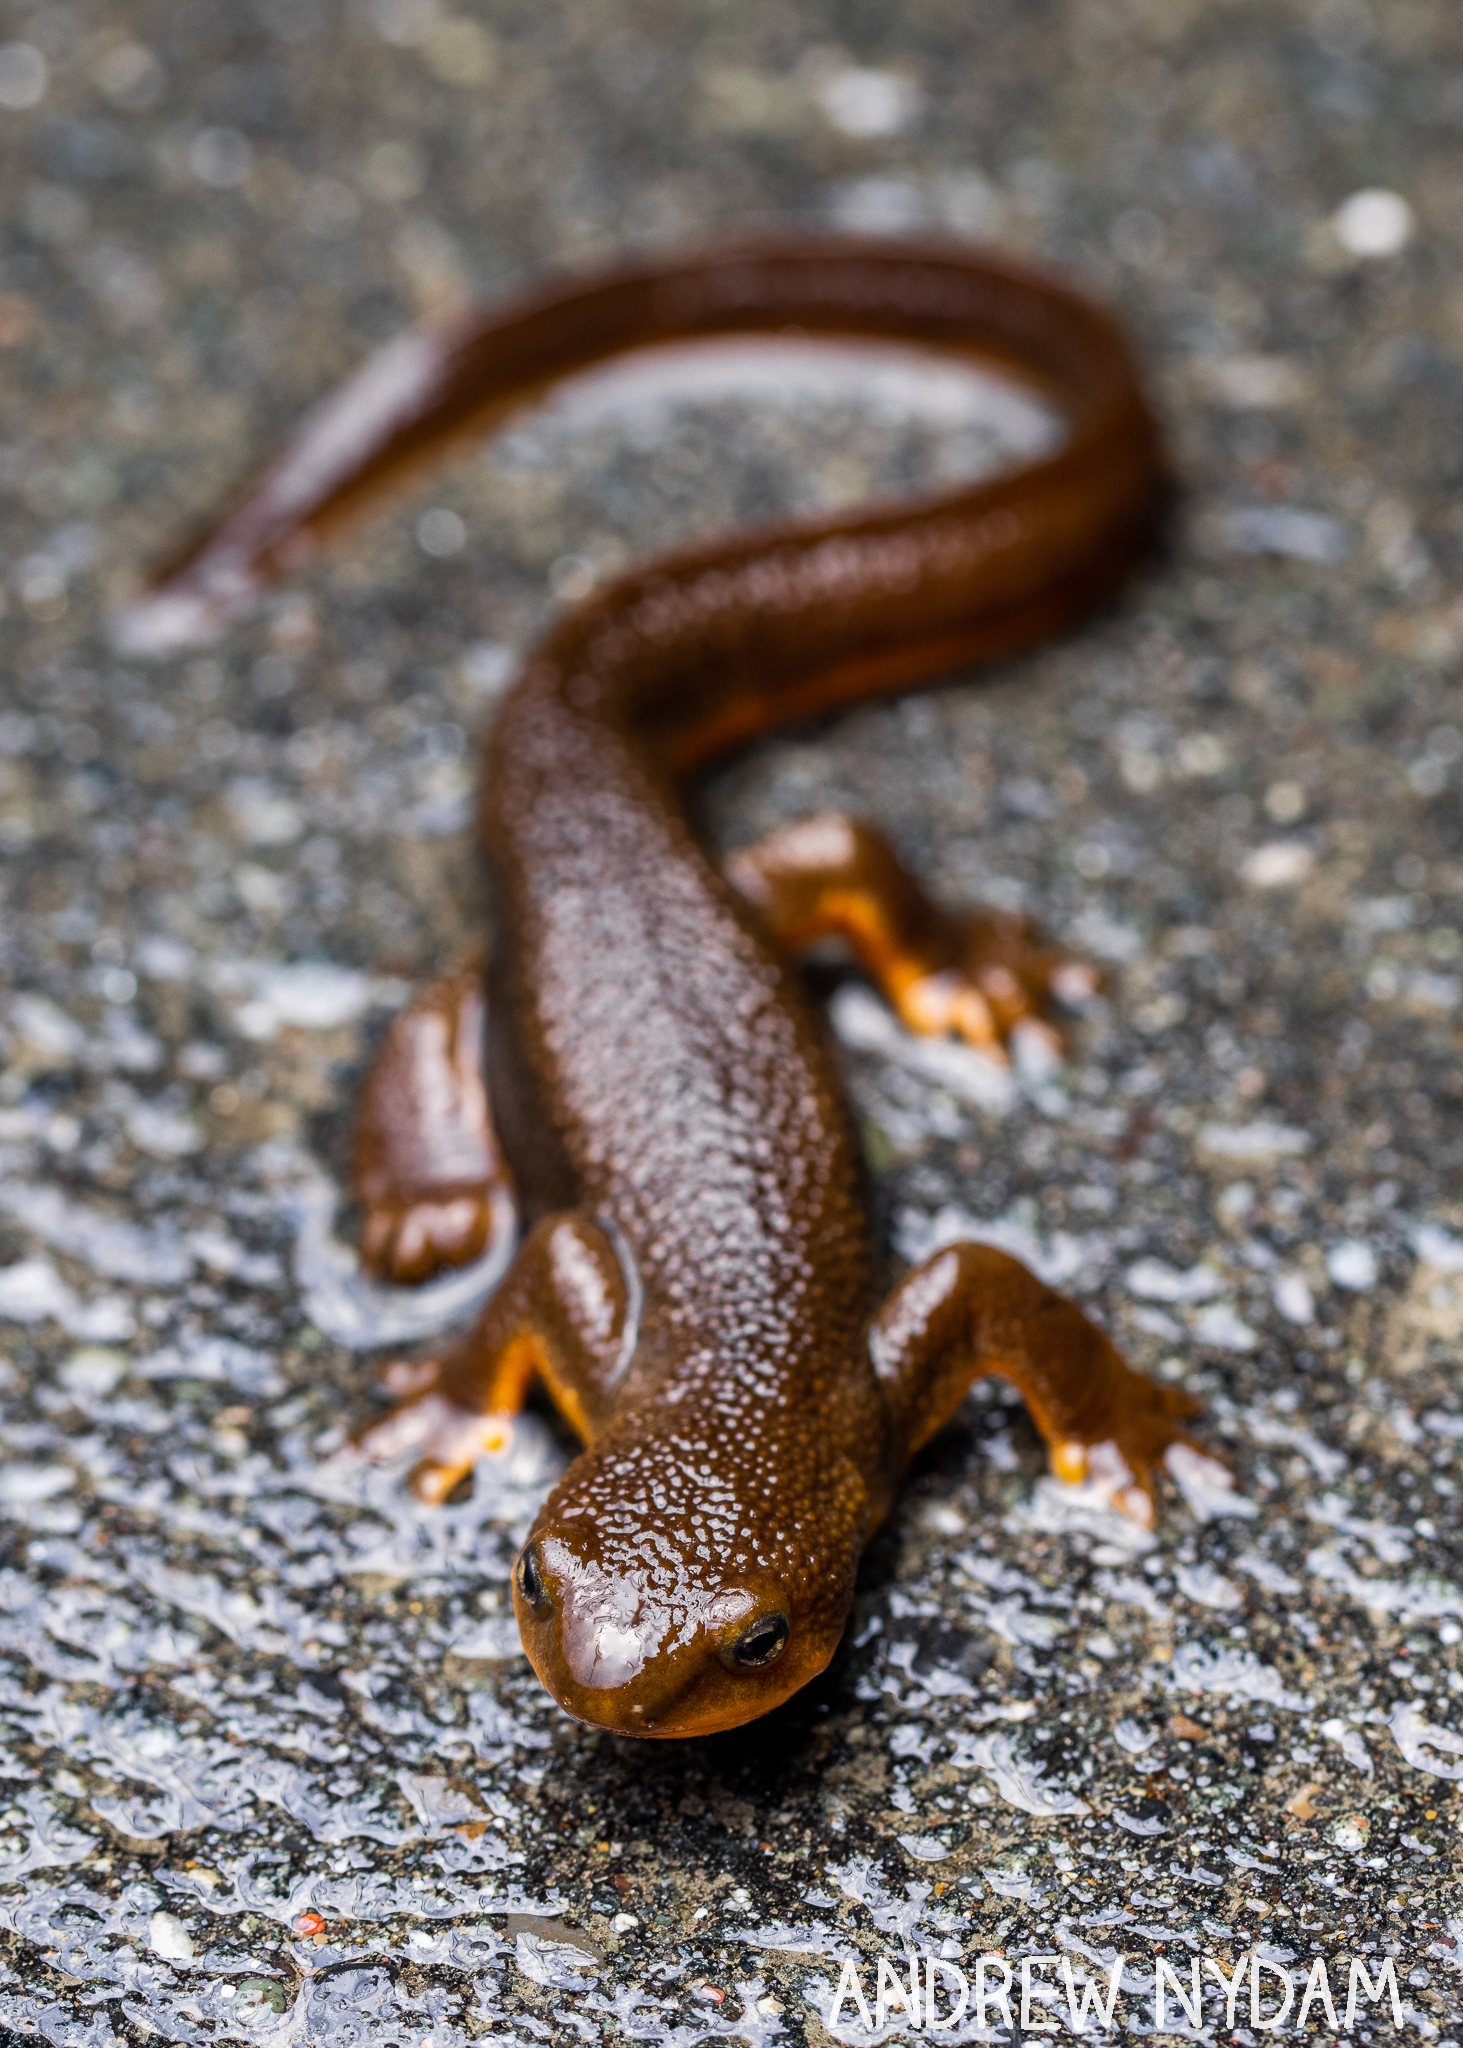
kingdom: Animalia
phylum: Chordata
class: Amphibia
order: Caudata
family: Salamandridae
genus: Taricha
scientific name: Taricha granulosa
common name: Roughskin newt
